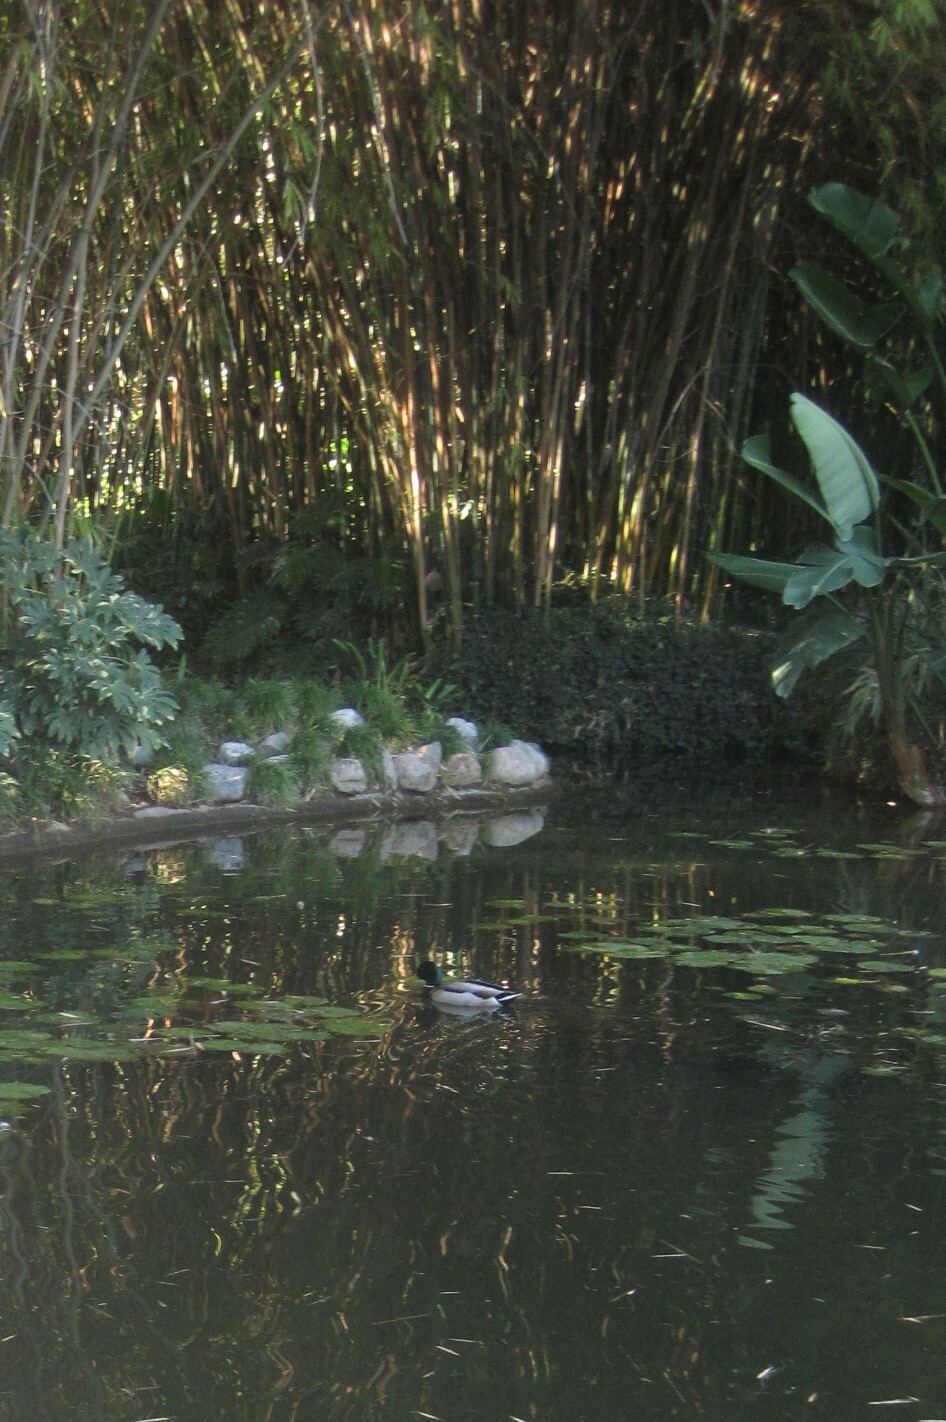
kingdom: Animalia
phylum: Chordata
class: Aves
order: Anseriformes
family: Anatidae
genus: Anas
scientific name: Anas platyrhynchos
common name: Mallard
